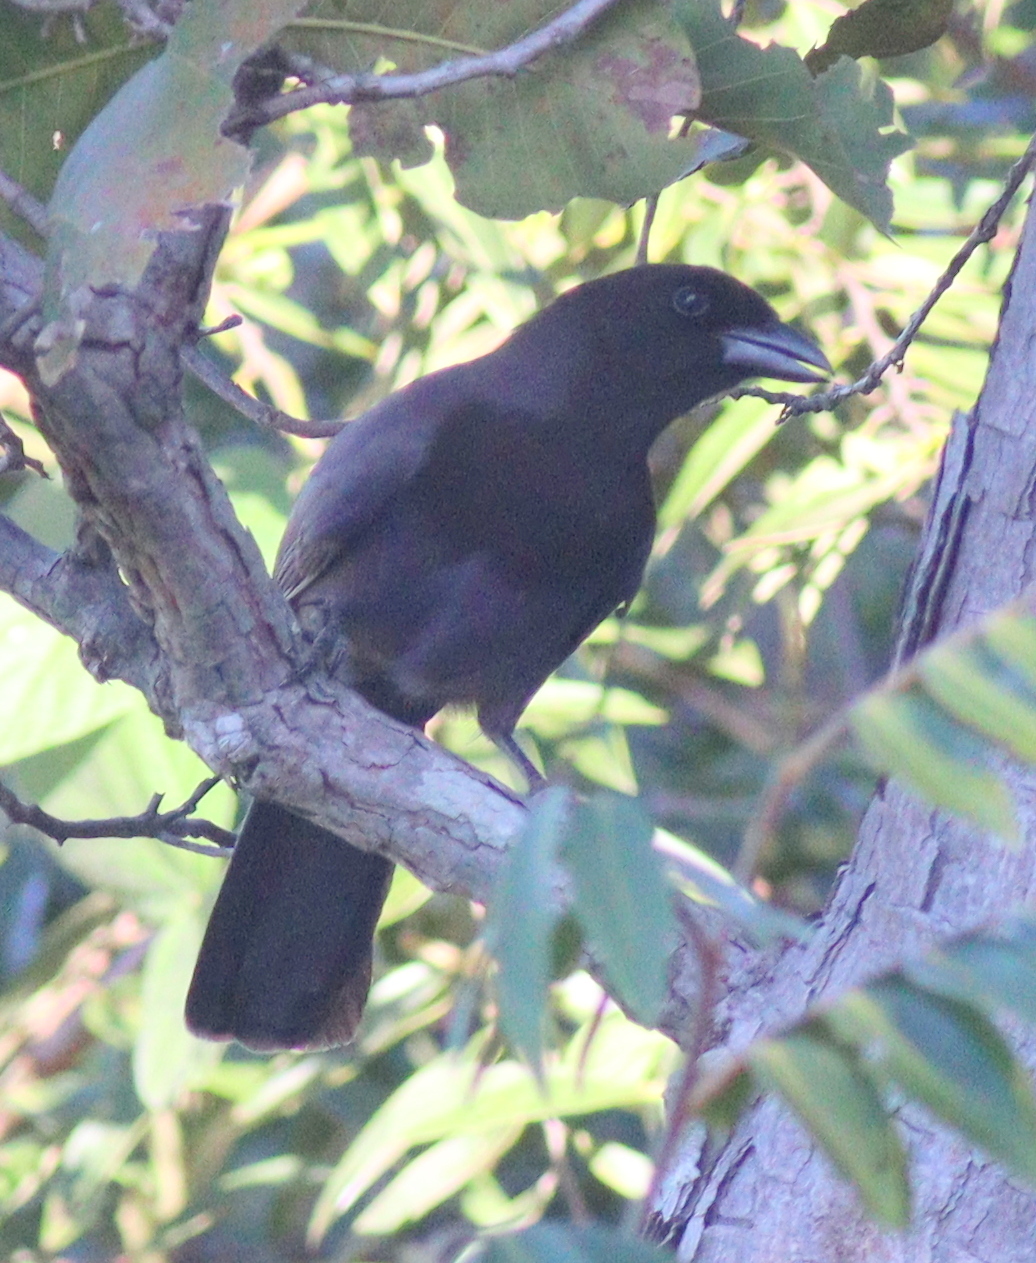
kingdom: Animalia
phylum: Chordata
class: Aves
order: Passeriformes
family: Corvidae
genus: Cyanocorax
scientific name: Cyanocorax cyanomelas
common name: Purplish jay
